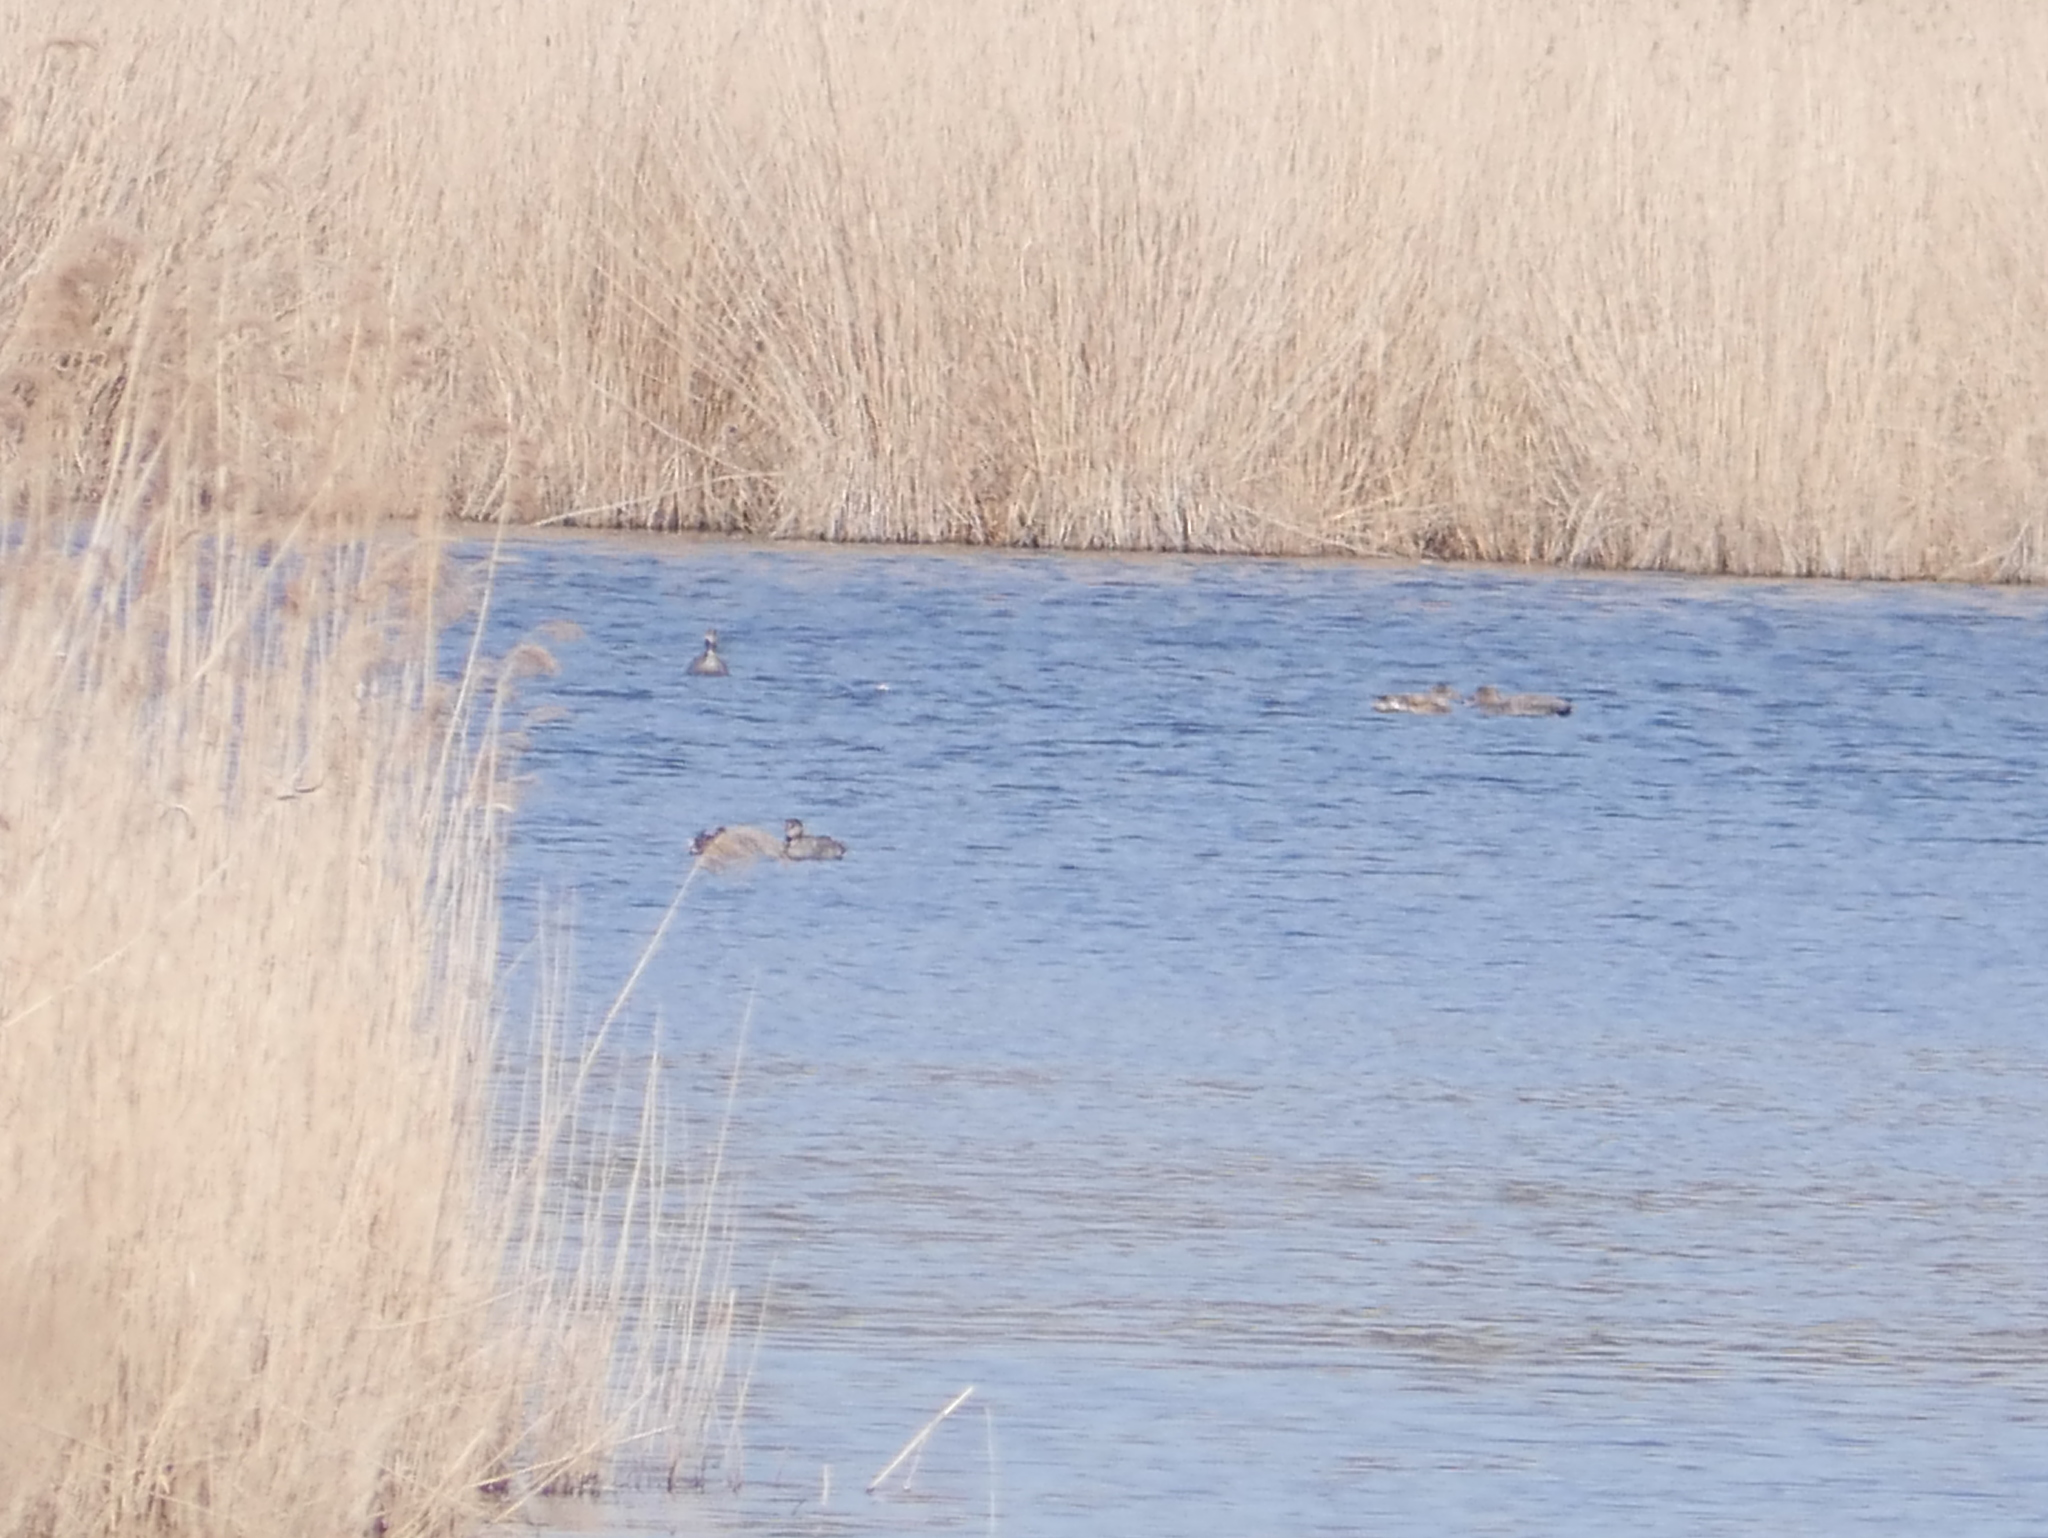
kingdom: Animalia
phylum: Chordata
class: Aves
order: Anseriformes
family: Anatidae
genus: Mareca
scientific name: Mareca strepera
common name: Gadwall
